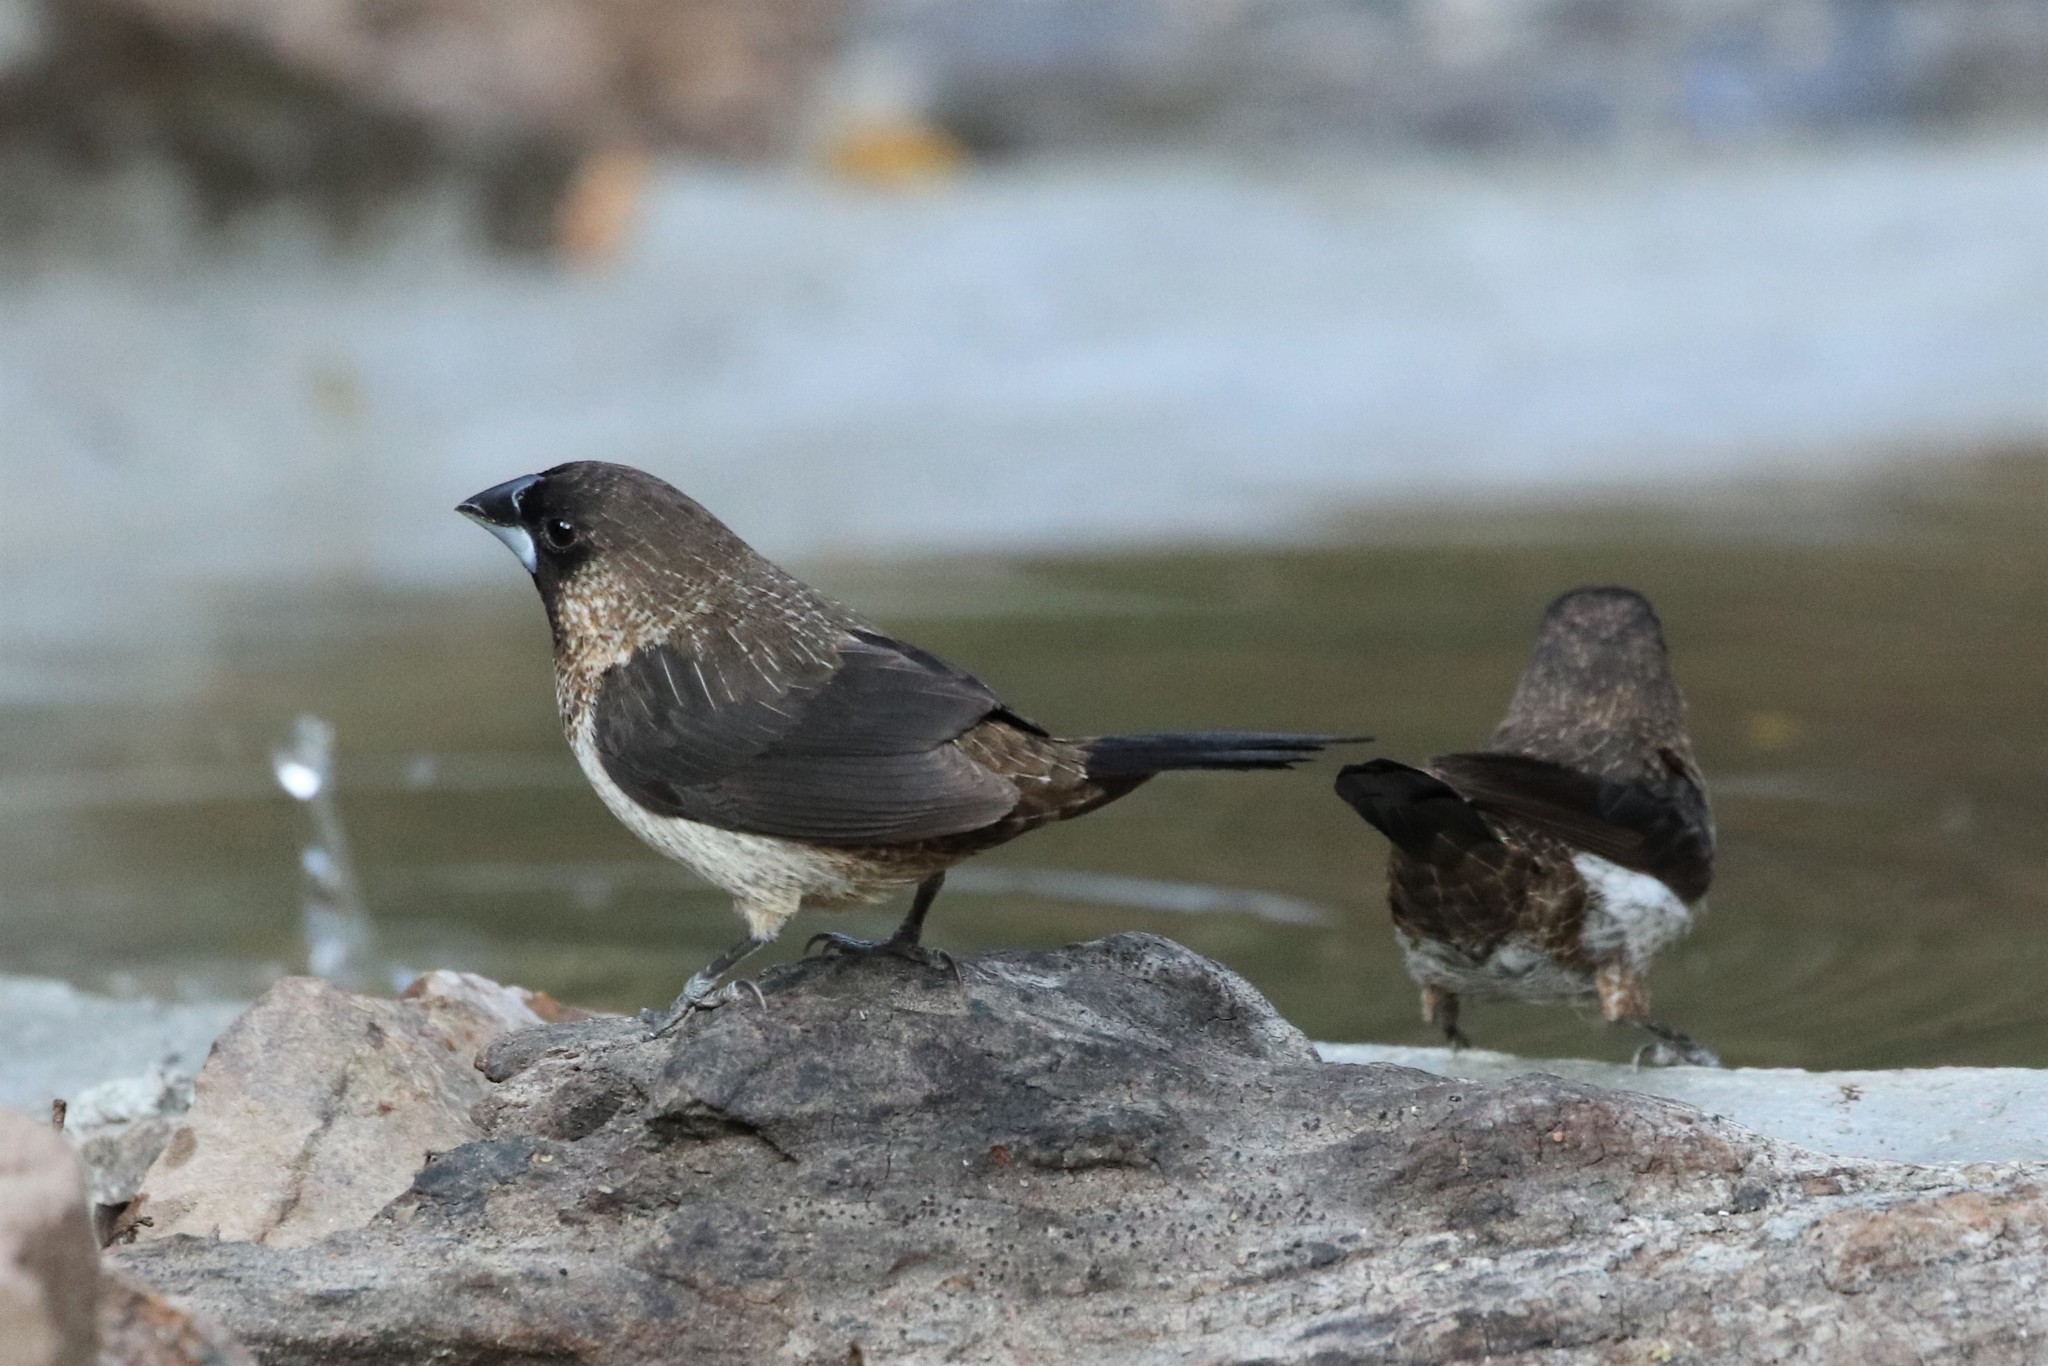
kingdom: Animalia
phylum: Chordata
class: Aves
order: Passeriformes
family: Estrildidae
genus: Lonchura
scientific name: Lonchura striata
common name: White-rumped munia
